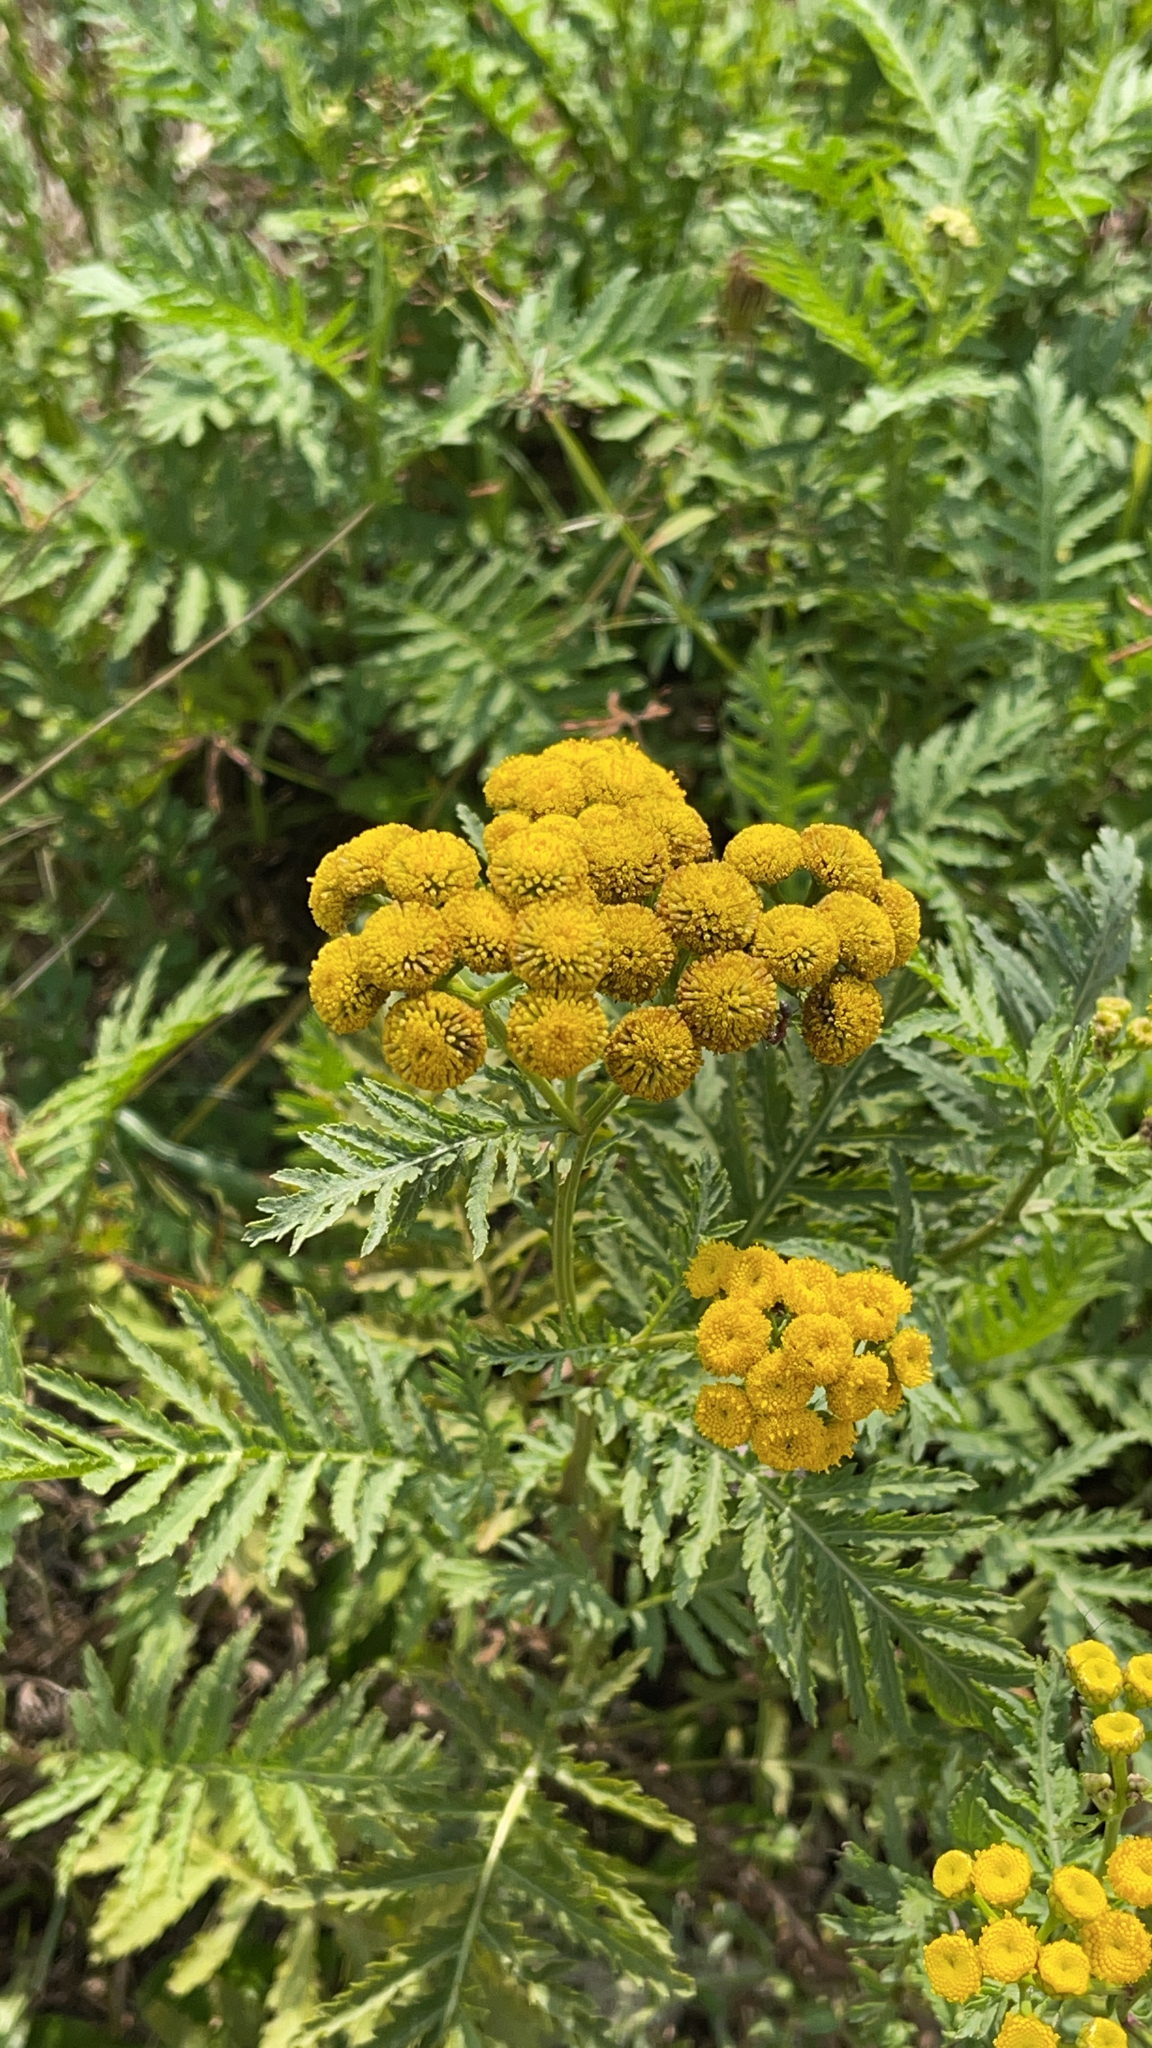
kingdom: Plantae
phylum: Tracheophyta
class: Magnoliopsida
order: Asterales
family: Asteraceae
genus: Tanacetum
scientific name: Tanacetum vulgare
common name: Common tansy
